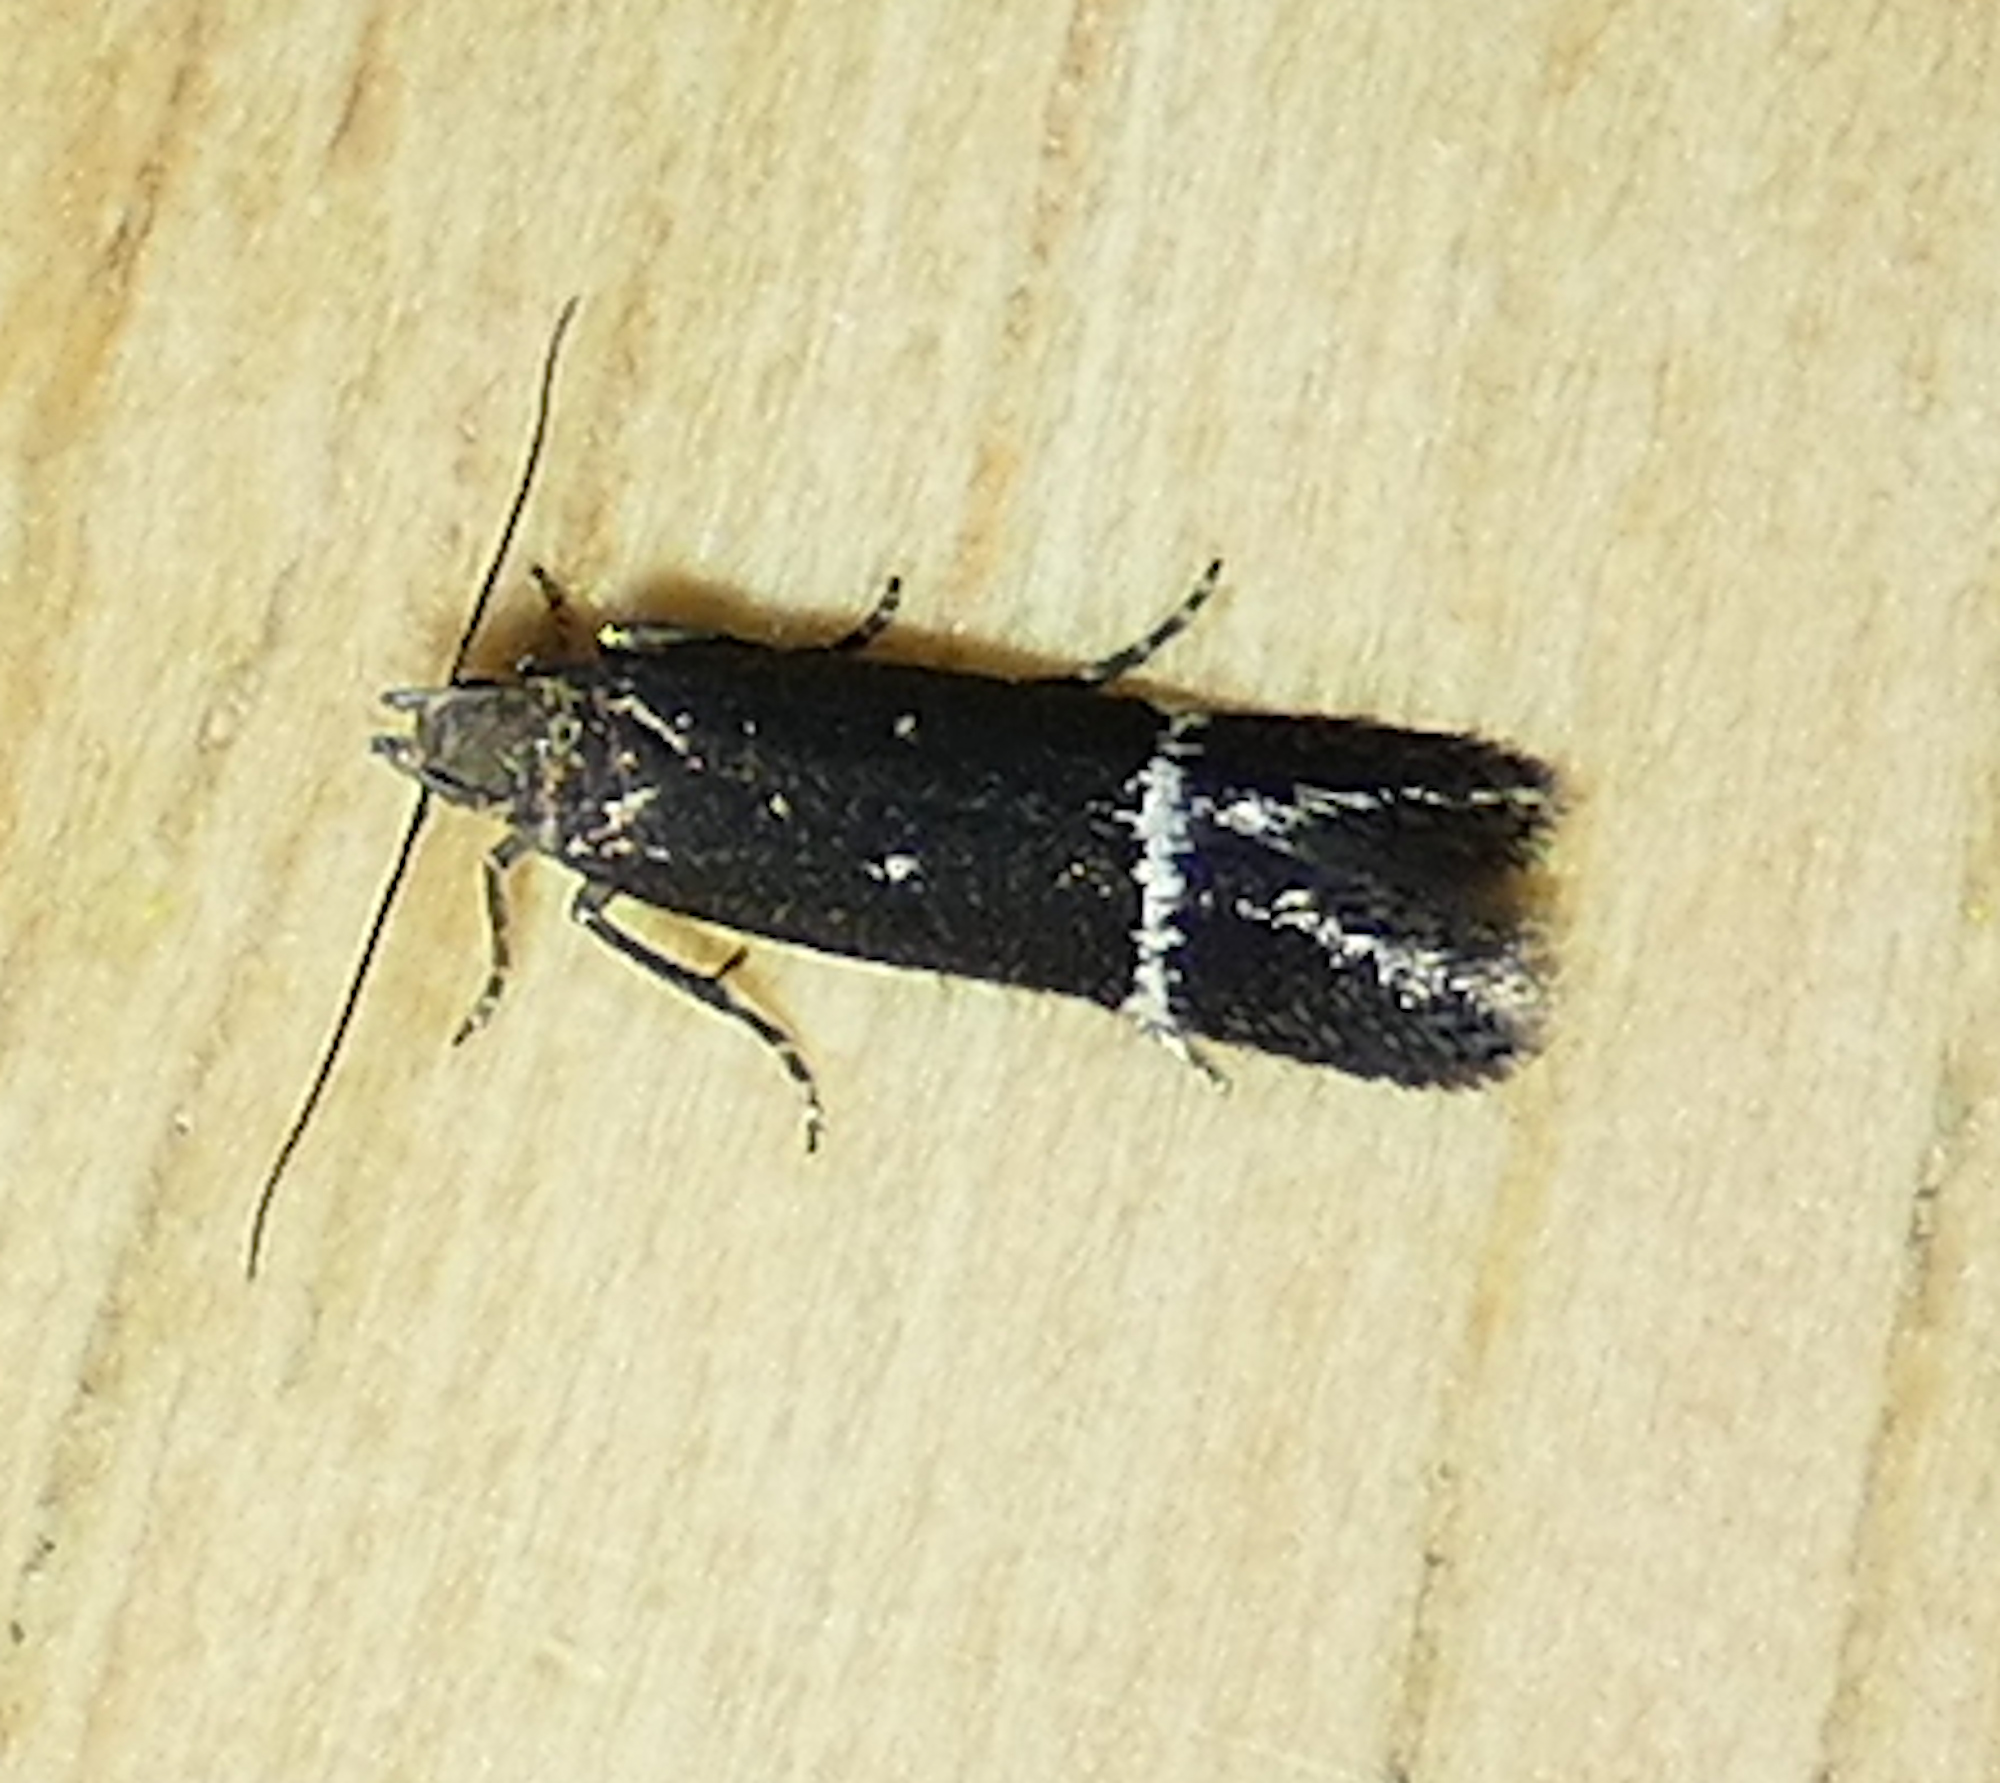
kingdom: Animalia
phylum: Arthropoda
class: Insecta
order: Lepidoptera
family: Gelechiidae
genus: Aproaerema
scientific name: Aproaerema nigrella
